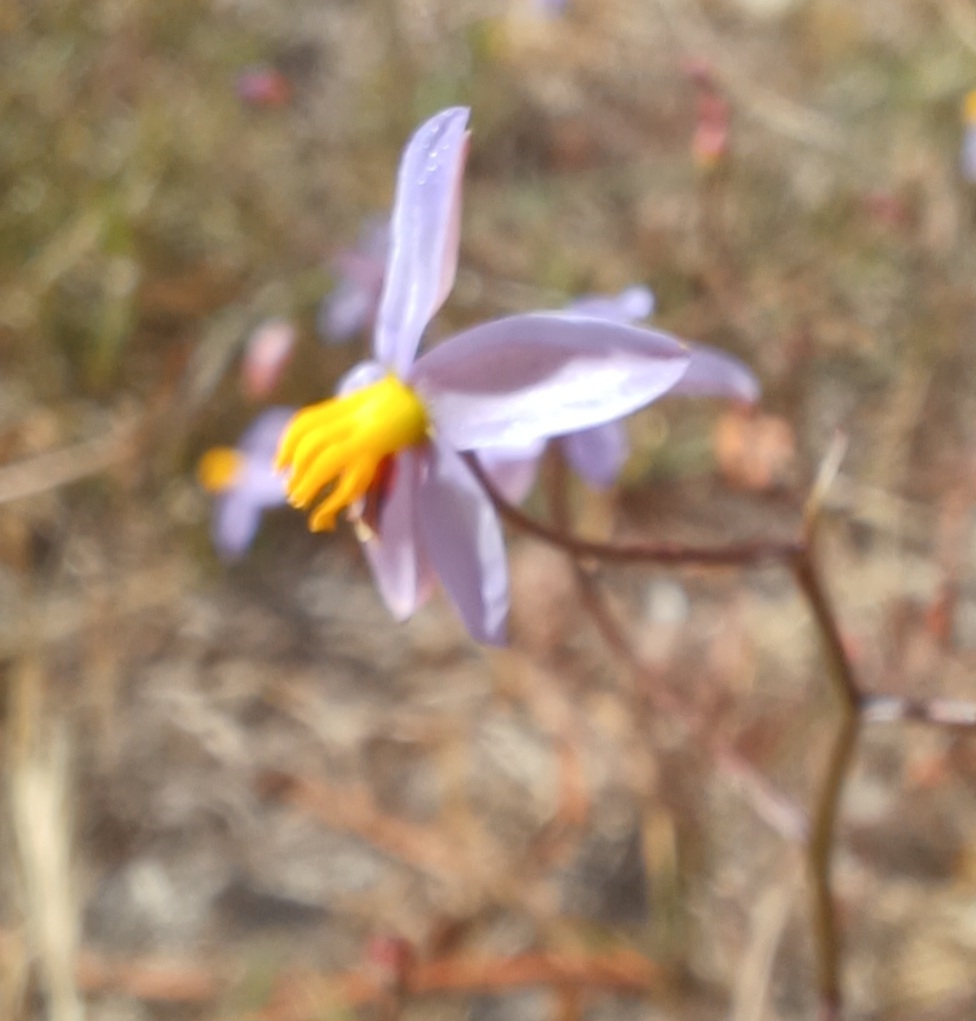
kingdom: Plantae
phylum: Tracheophyta
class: Liliopsida
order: Asparagales
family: Tecophilaeaceae
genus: Cyanella
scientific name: Cyanella hyacinthoides
